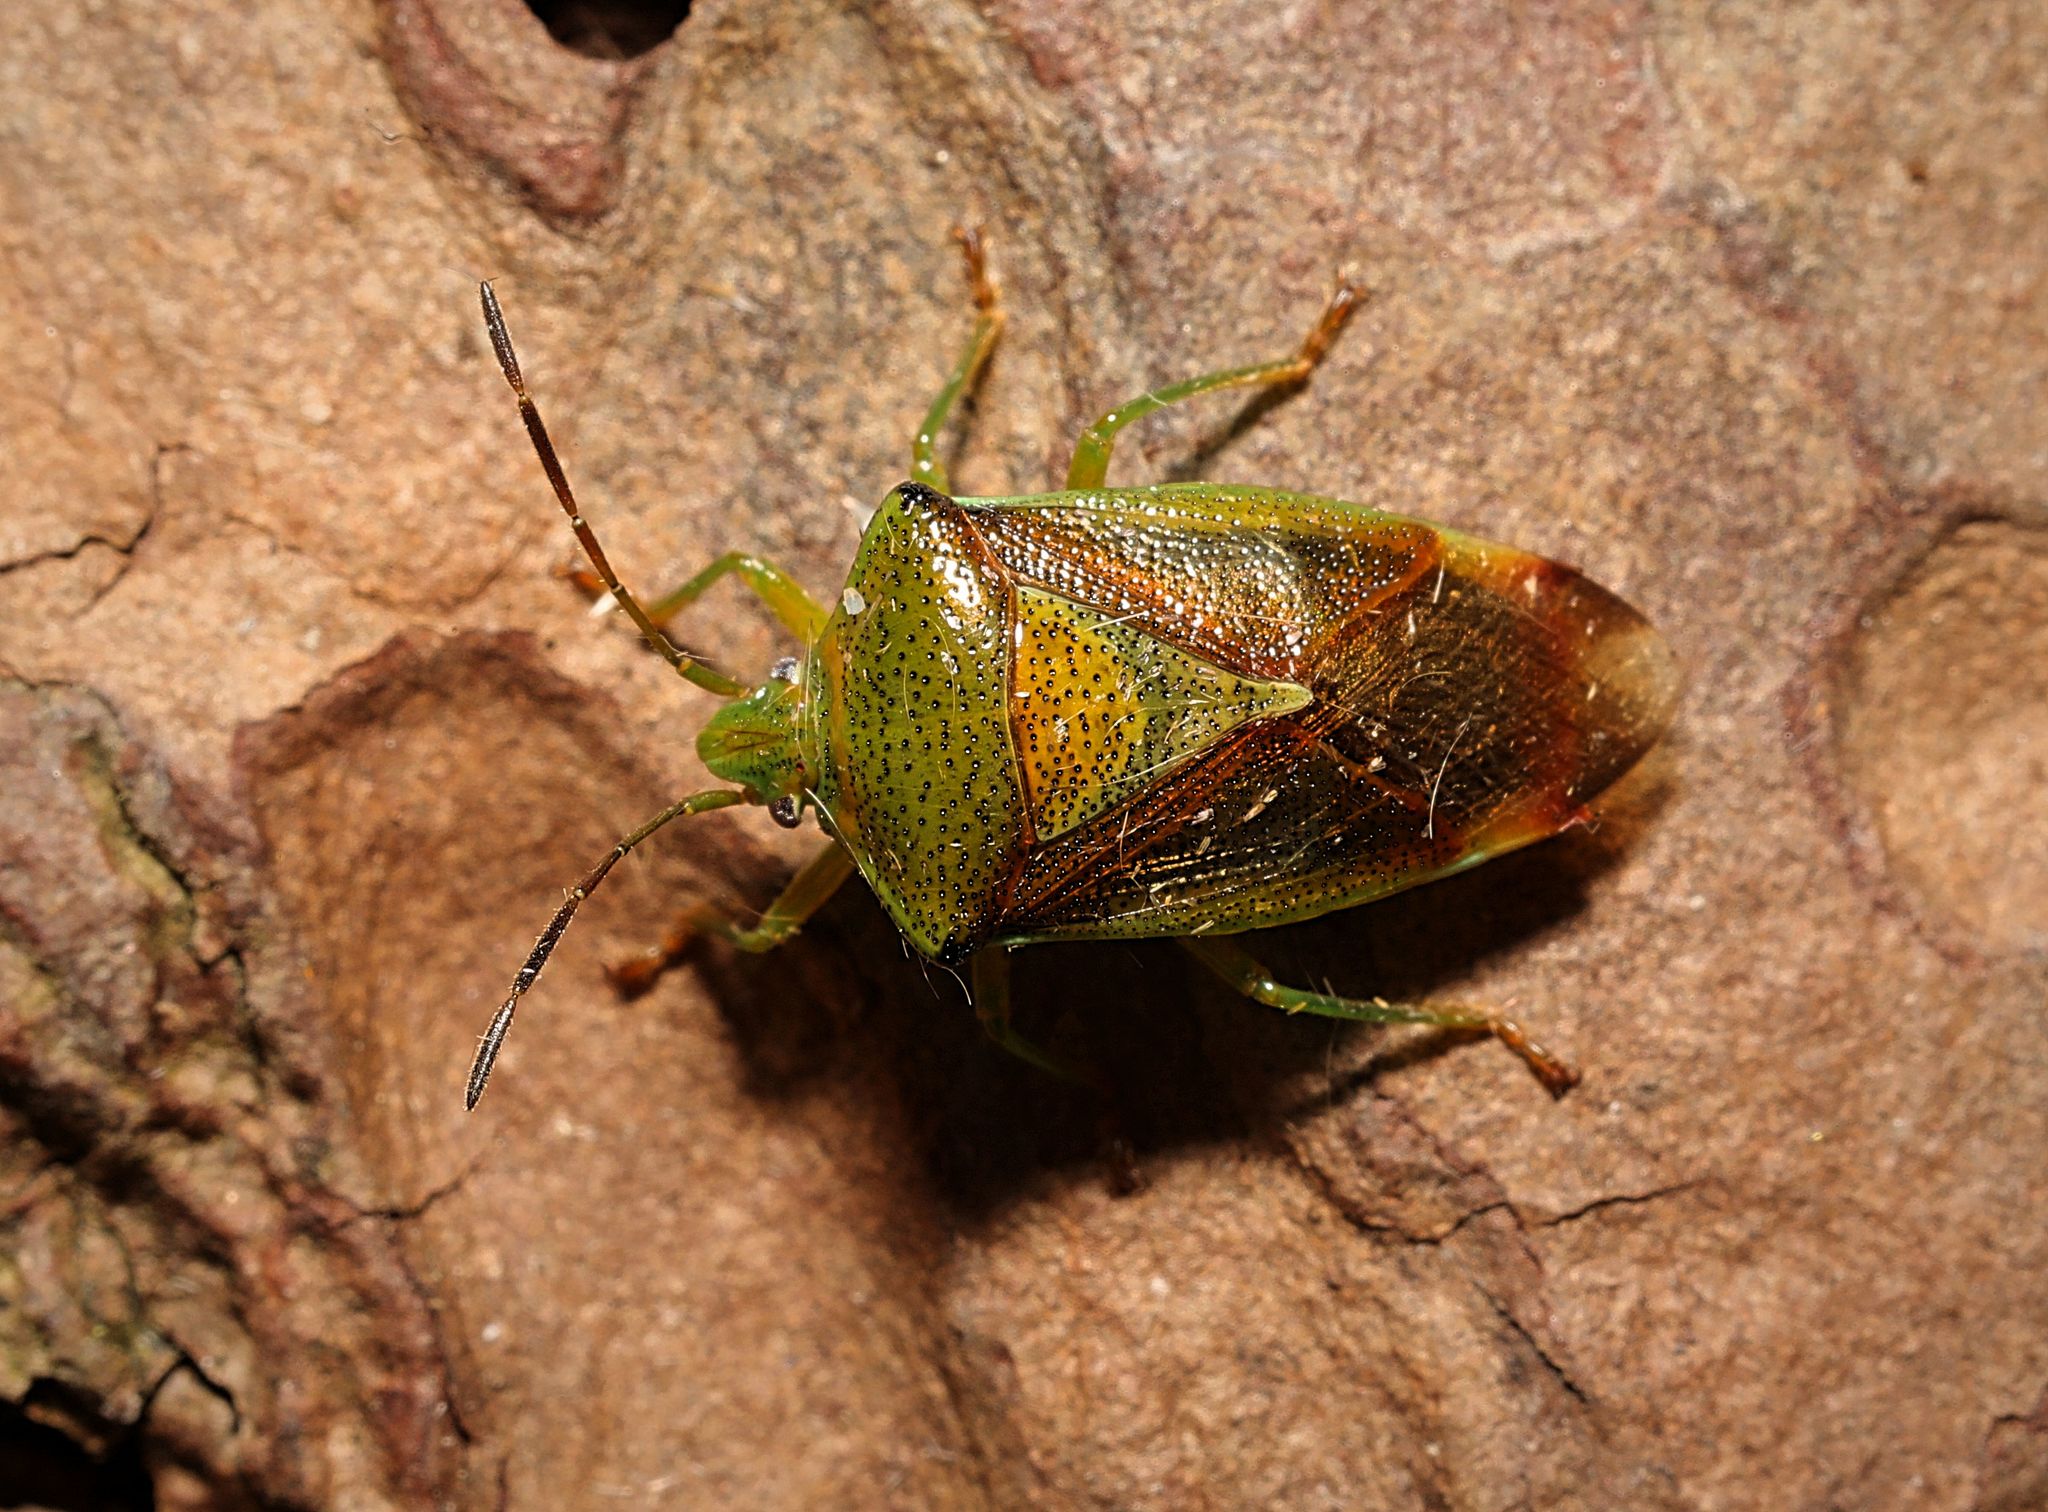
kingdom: Animalia
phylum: Arthropoda
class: Insecta
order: Hemiptera
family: Acanthosomatidae
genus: Elasmostethus
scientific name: Elasmostethus interstinctus
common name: Birch shieldbug
